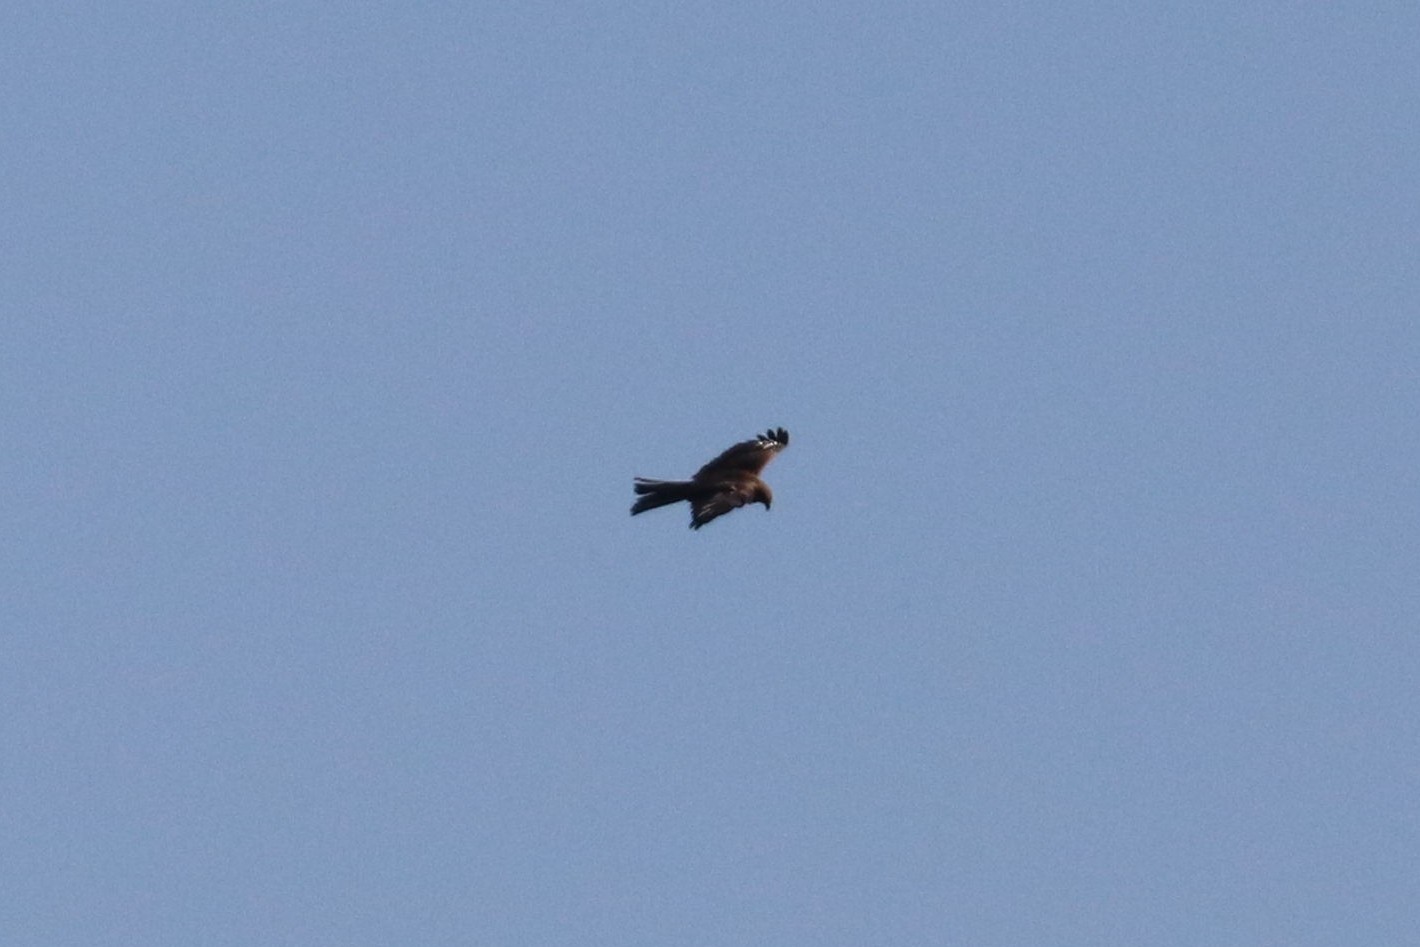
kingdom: Animalia
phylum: Chordata
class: Aves
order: Accipitriformes
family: Accipitridae
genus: Milvus
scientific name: Milvus migrans
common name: Black kite
